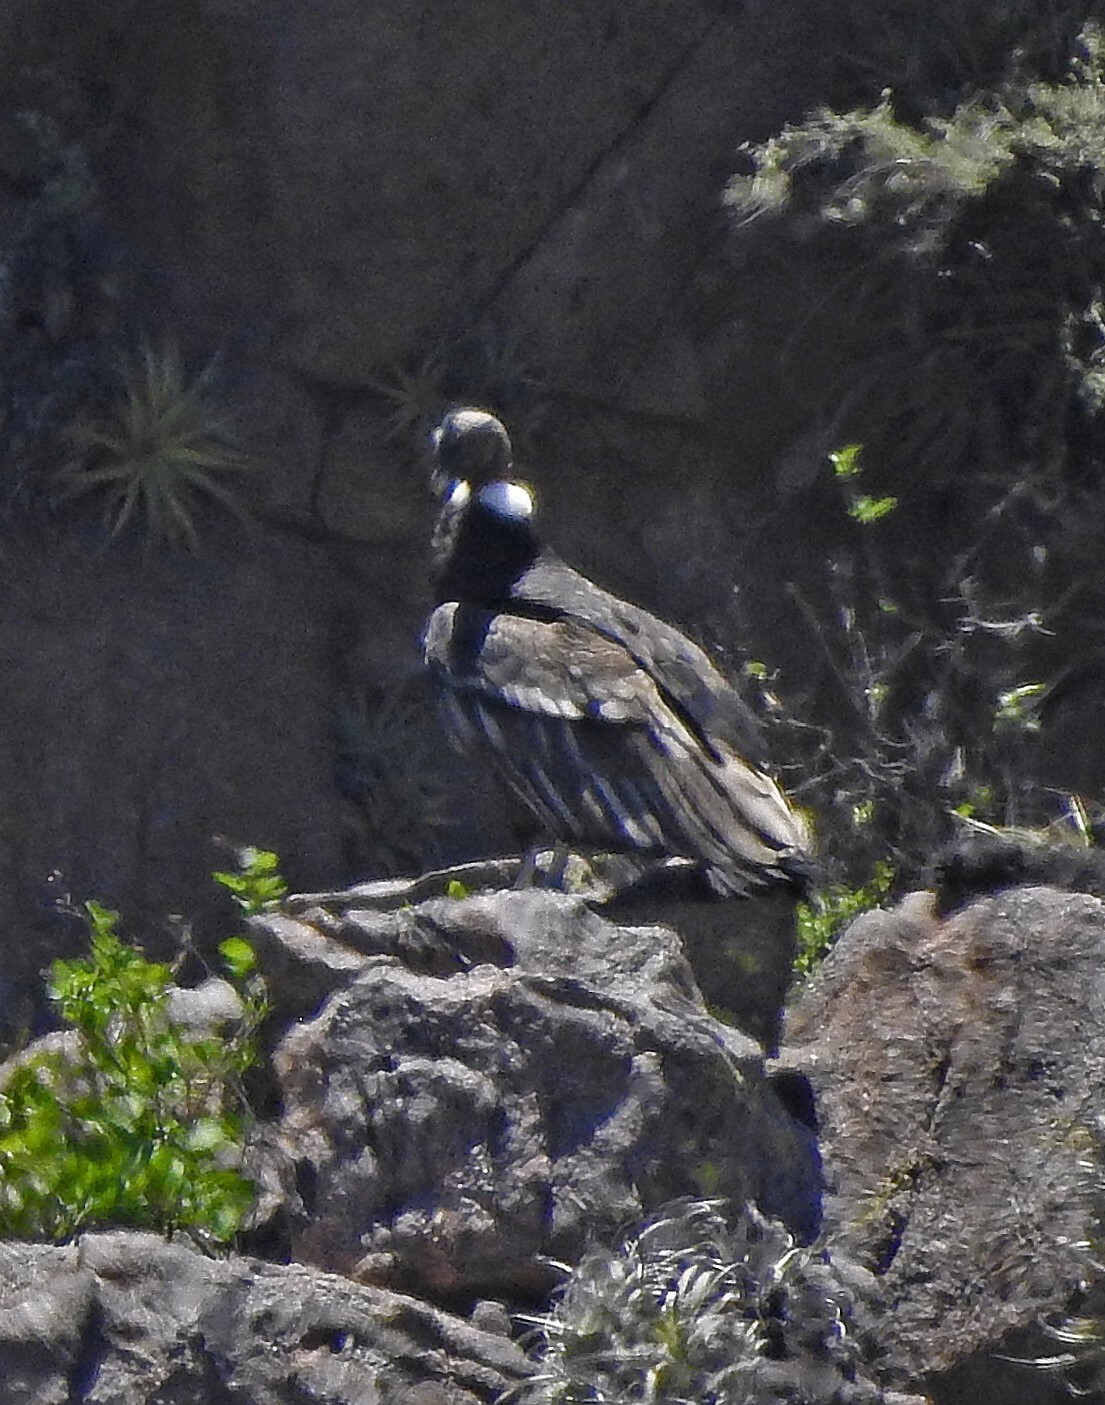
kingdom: Animalia
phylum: Chordata
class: Aves
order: Accipitriformes
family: Cathartidae
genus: Vultur
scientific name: Vultur gryphus
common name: Andean condor
